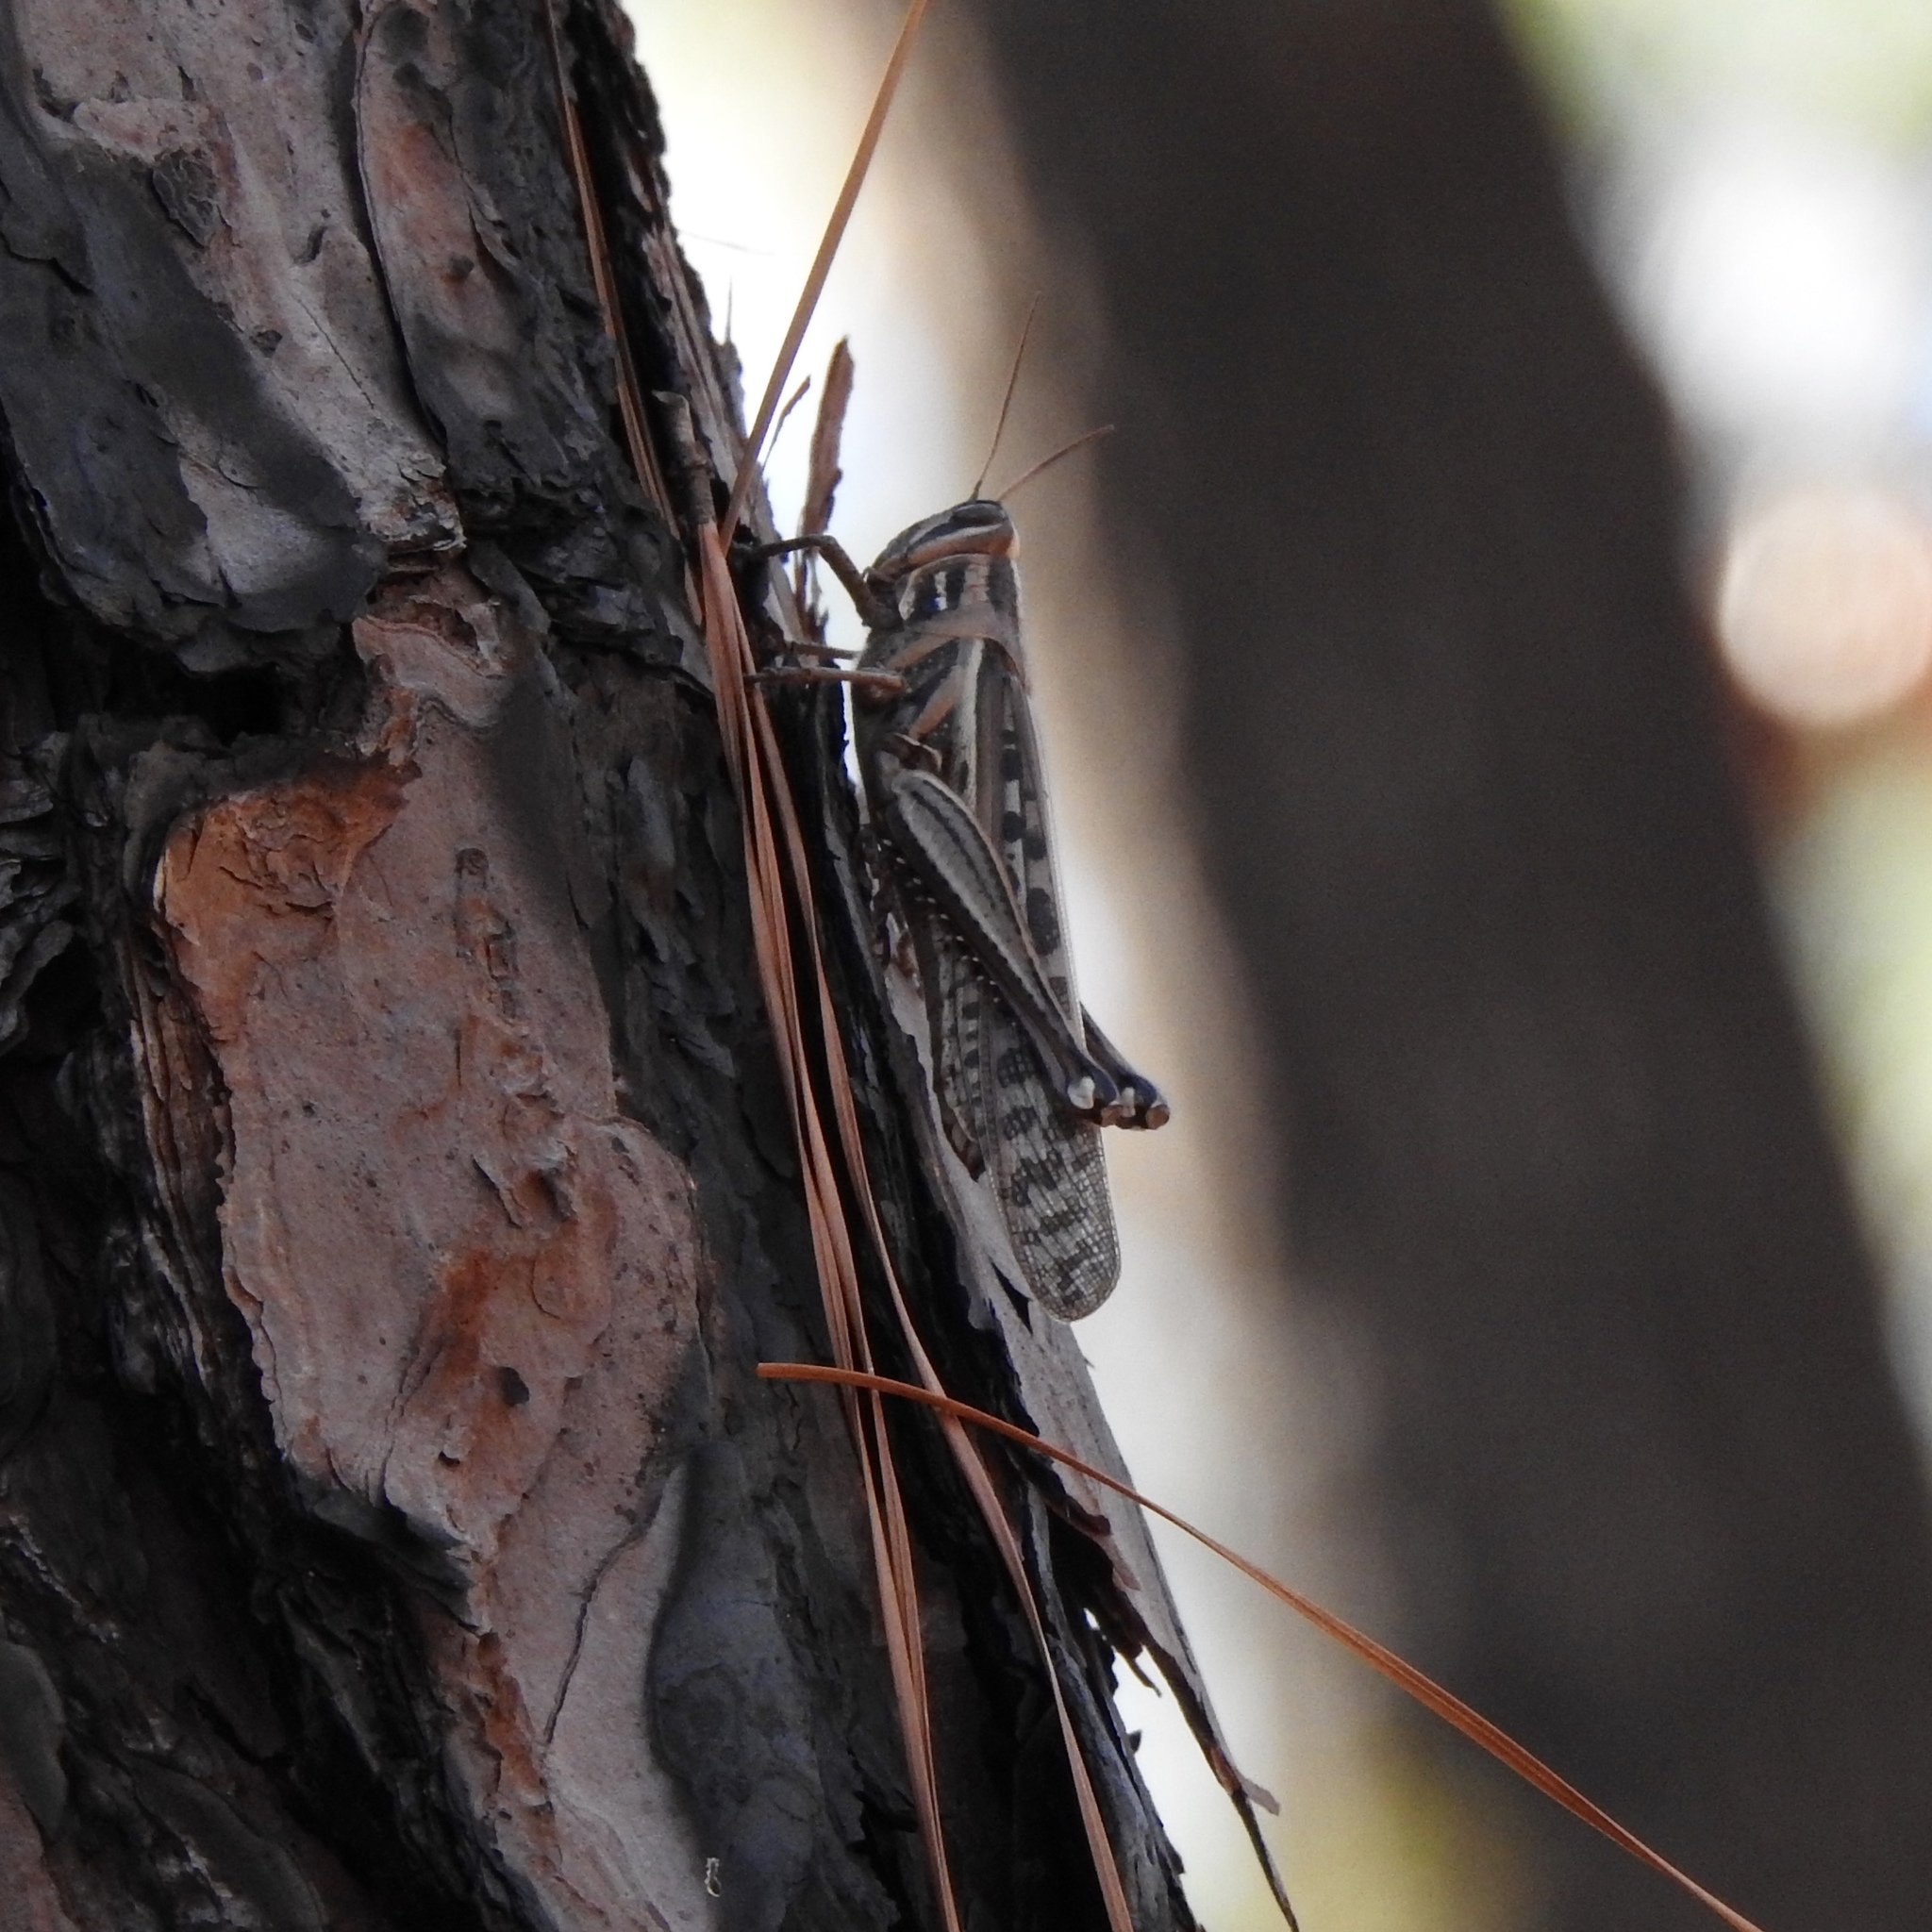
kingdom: Animalia
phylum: Arthropoda
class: Insecta
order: Orthoptera
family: Acrididae
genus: Schistocerca
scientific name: Schistocerca americana
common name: American bird locust
